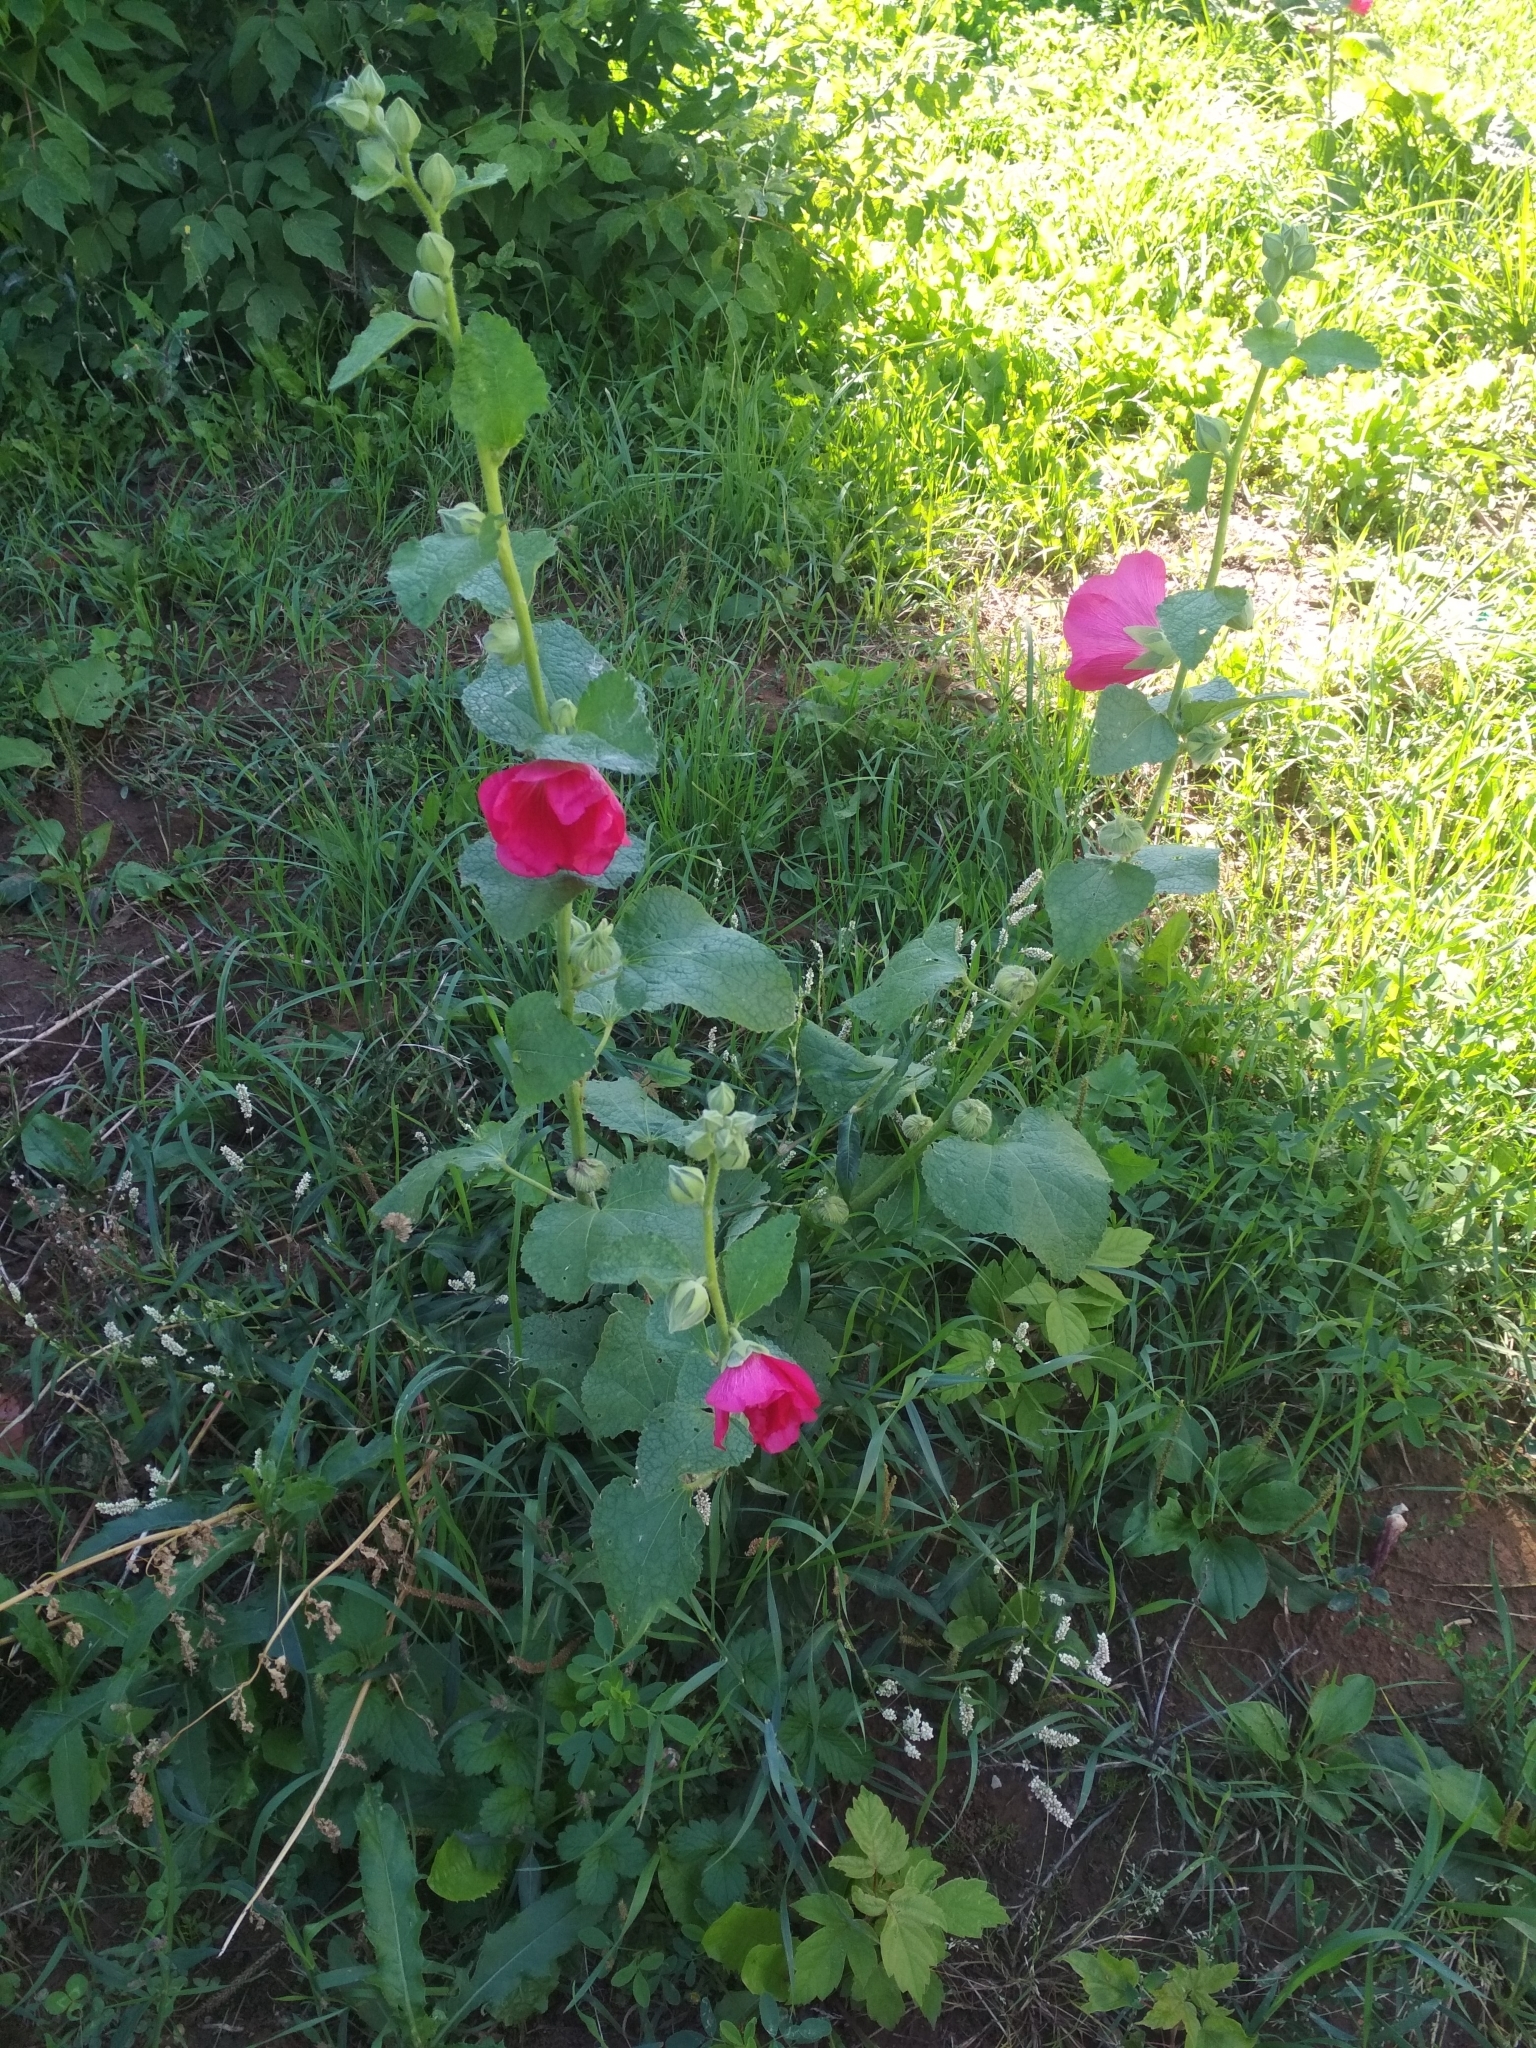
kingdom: Plantae
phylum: Tracheophyta
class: Magnoliopsida
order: Malvales
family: Malvaceae
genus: Alcea
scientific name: Alcea rosea
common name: Hollyhock
